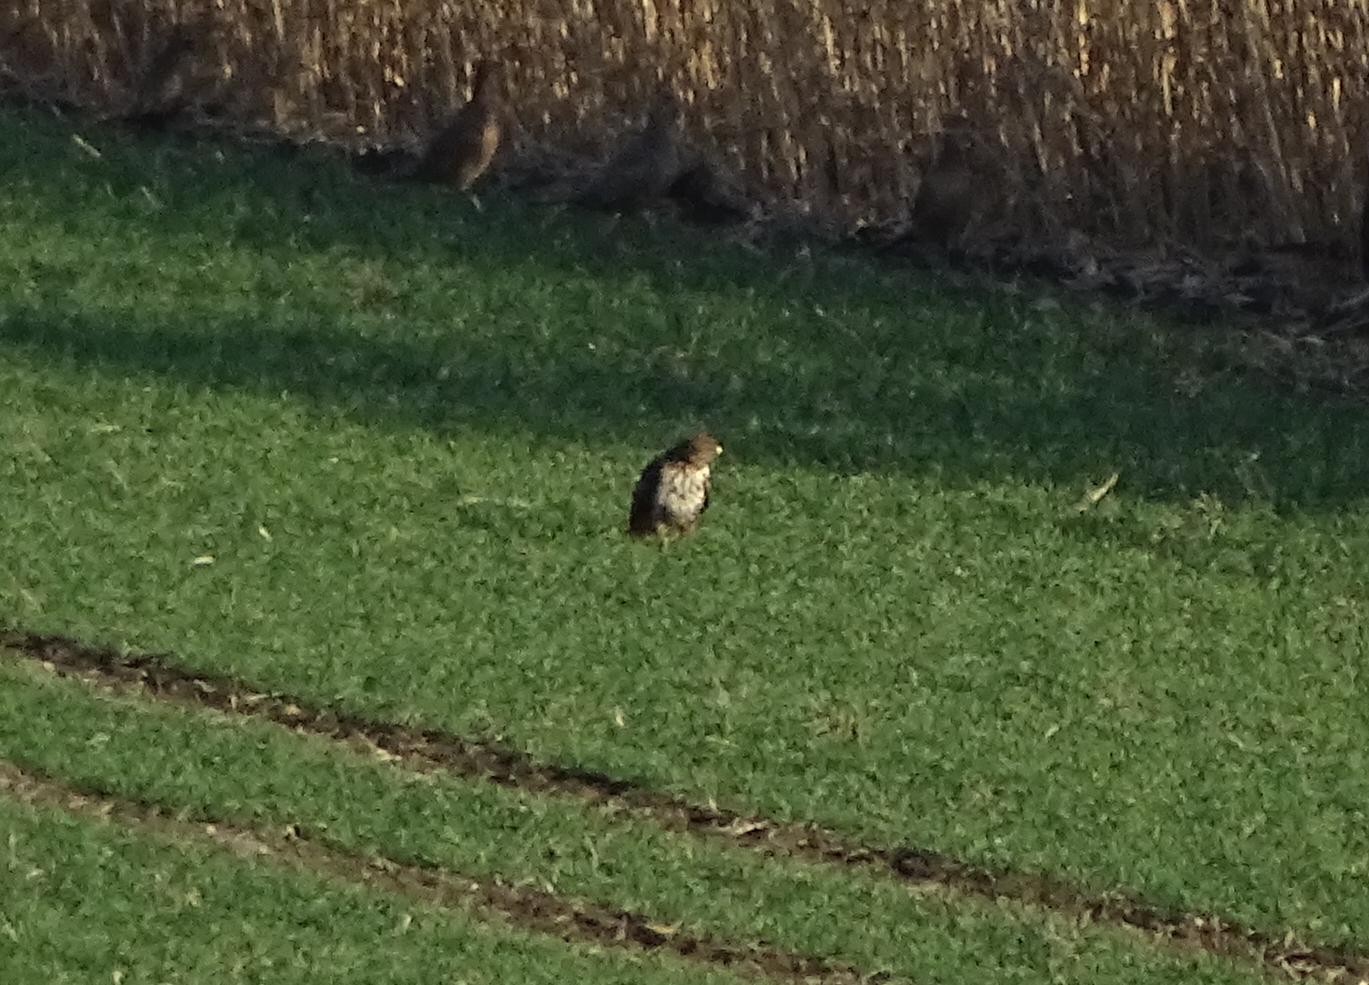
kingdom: Animalia
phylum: Chordata
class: Aves
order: Accipitriformes
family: Accipitridae
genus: Buteo
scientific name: Buteo buteo
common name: Common buzzard
